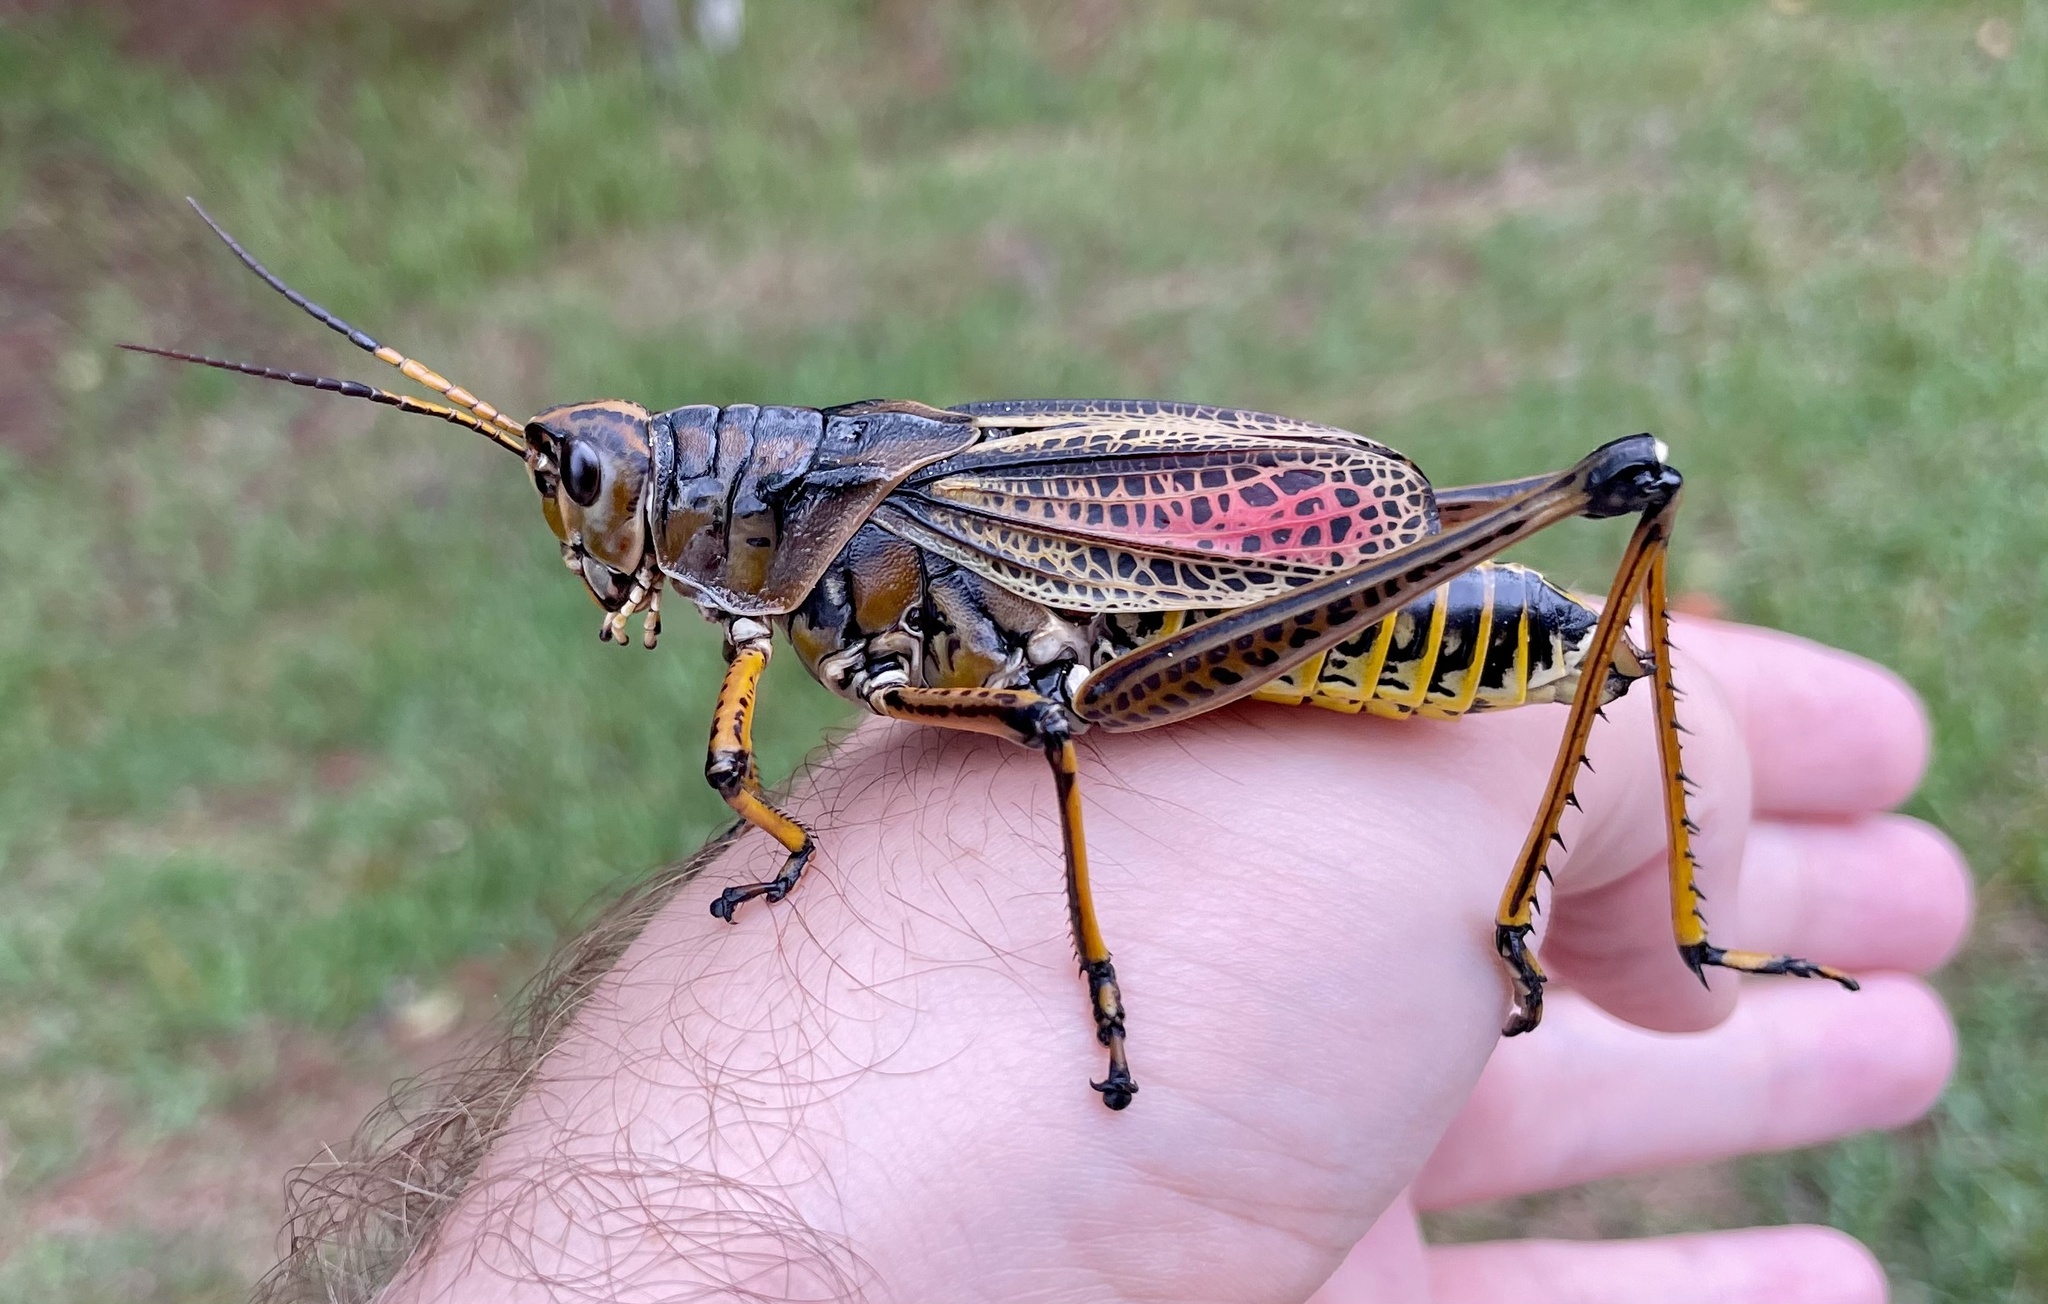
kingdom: Animalia
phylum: Arthropoda
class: Insecta
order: Orthoptera
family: Romaleidae
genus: Romalea
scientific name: Romalea microptera
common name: Eastern lubber grasshopper
